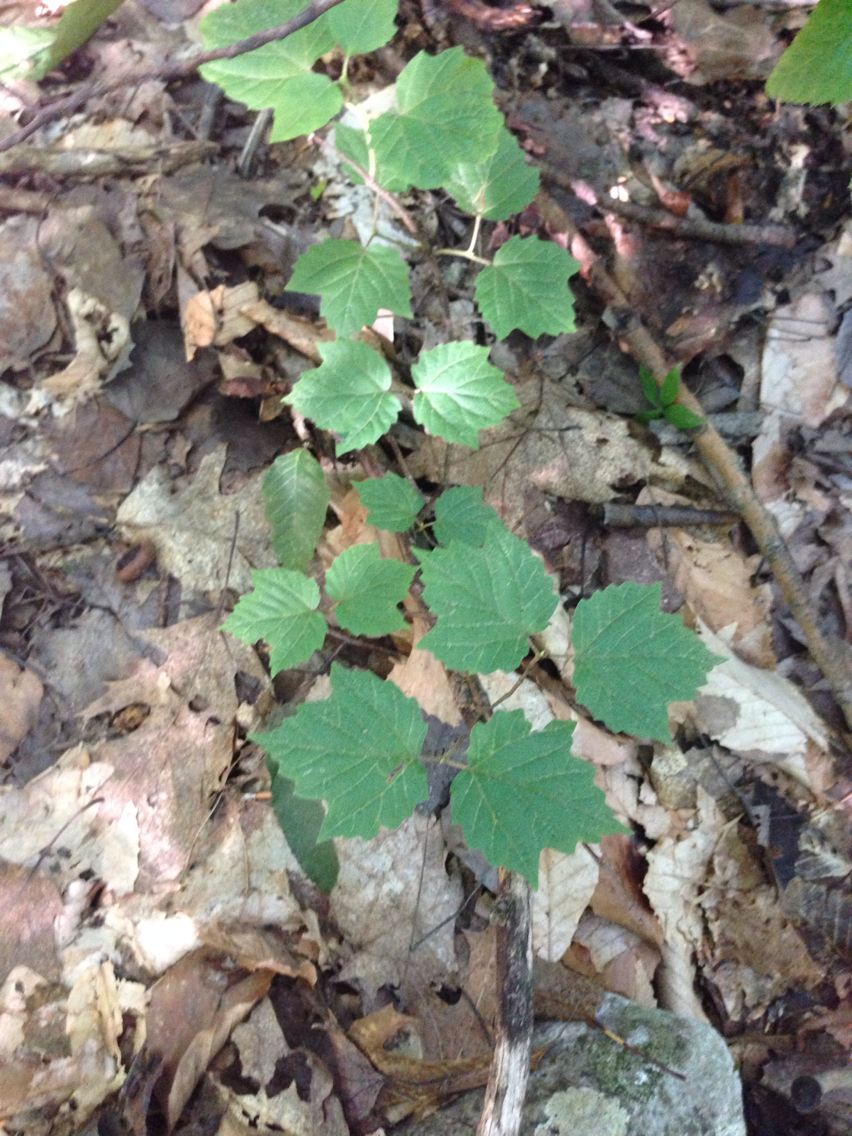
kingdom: Plantae
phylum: Tracheophyta
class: Magnoliopsida
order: Dipsacales
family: Viburnaceae
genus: Viburnum
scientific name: Viburnum acerifolium
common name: Dockmackie
